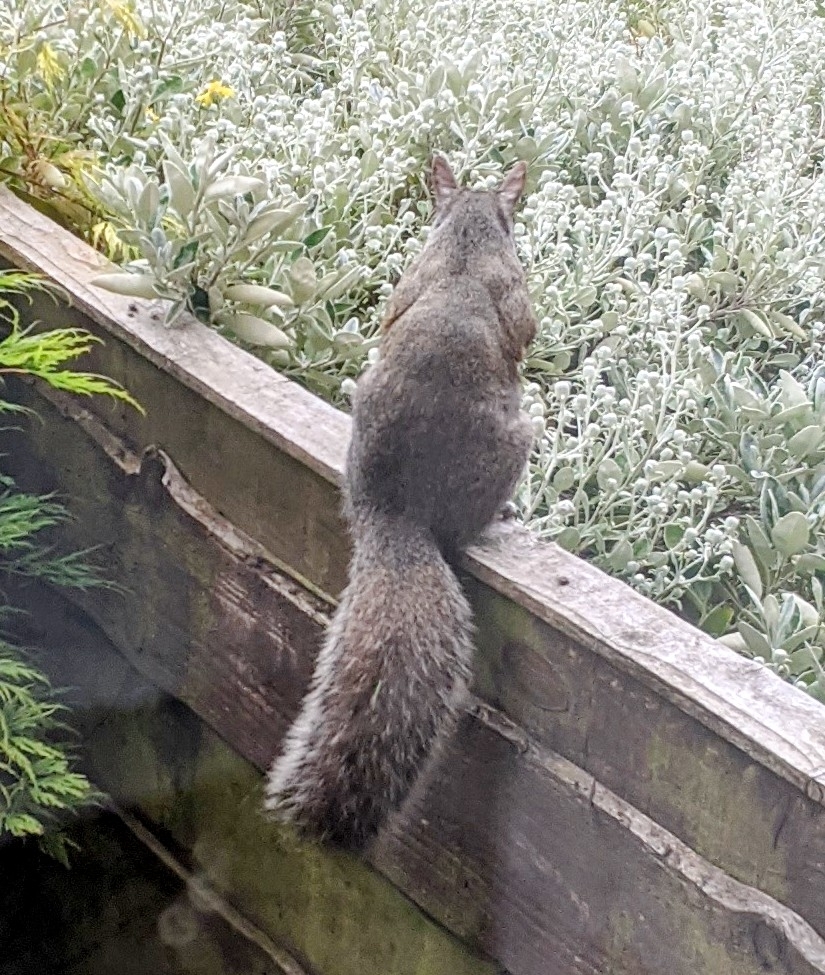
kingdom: Animalia
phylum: Chordata
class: Mammalia
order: Rodentia
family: Sciuridae
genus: Sciurus
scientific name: Sciurus carolinensis
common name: Eastern gray squirrel
